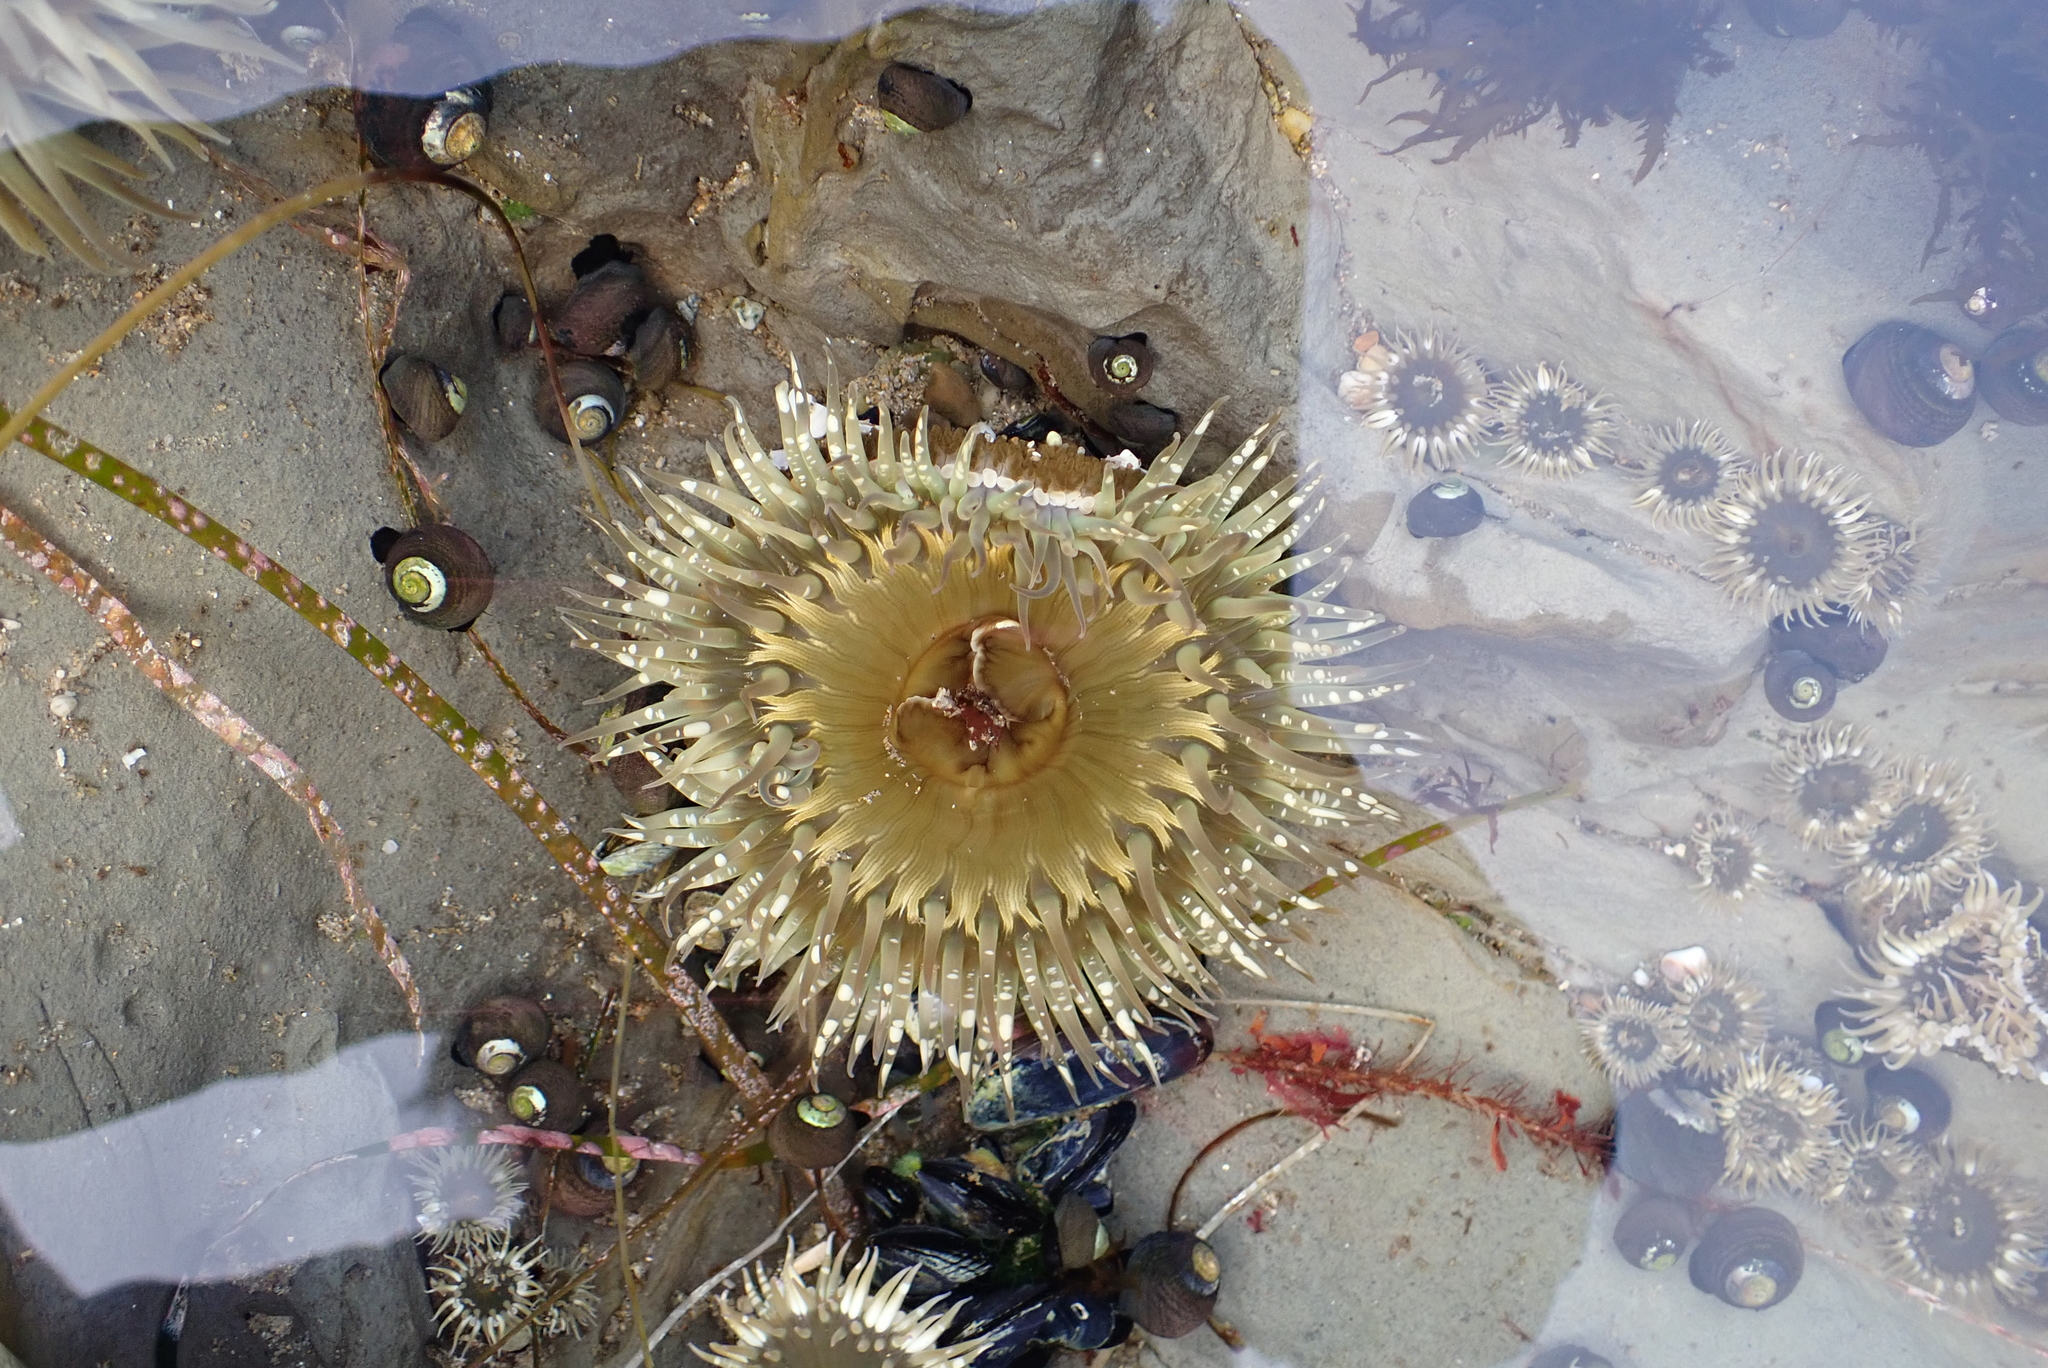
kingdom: Animalia
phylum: Cnidaria
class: Anthozoa
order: Actiniaria
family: Actiniidae
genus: Anthopleura
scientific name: Anthopleura sola
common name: Sun anemone
